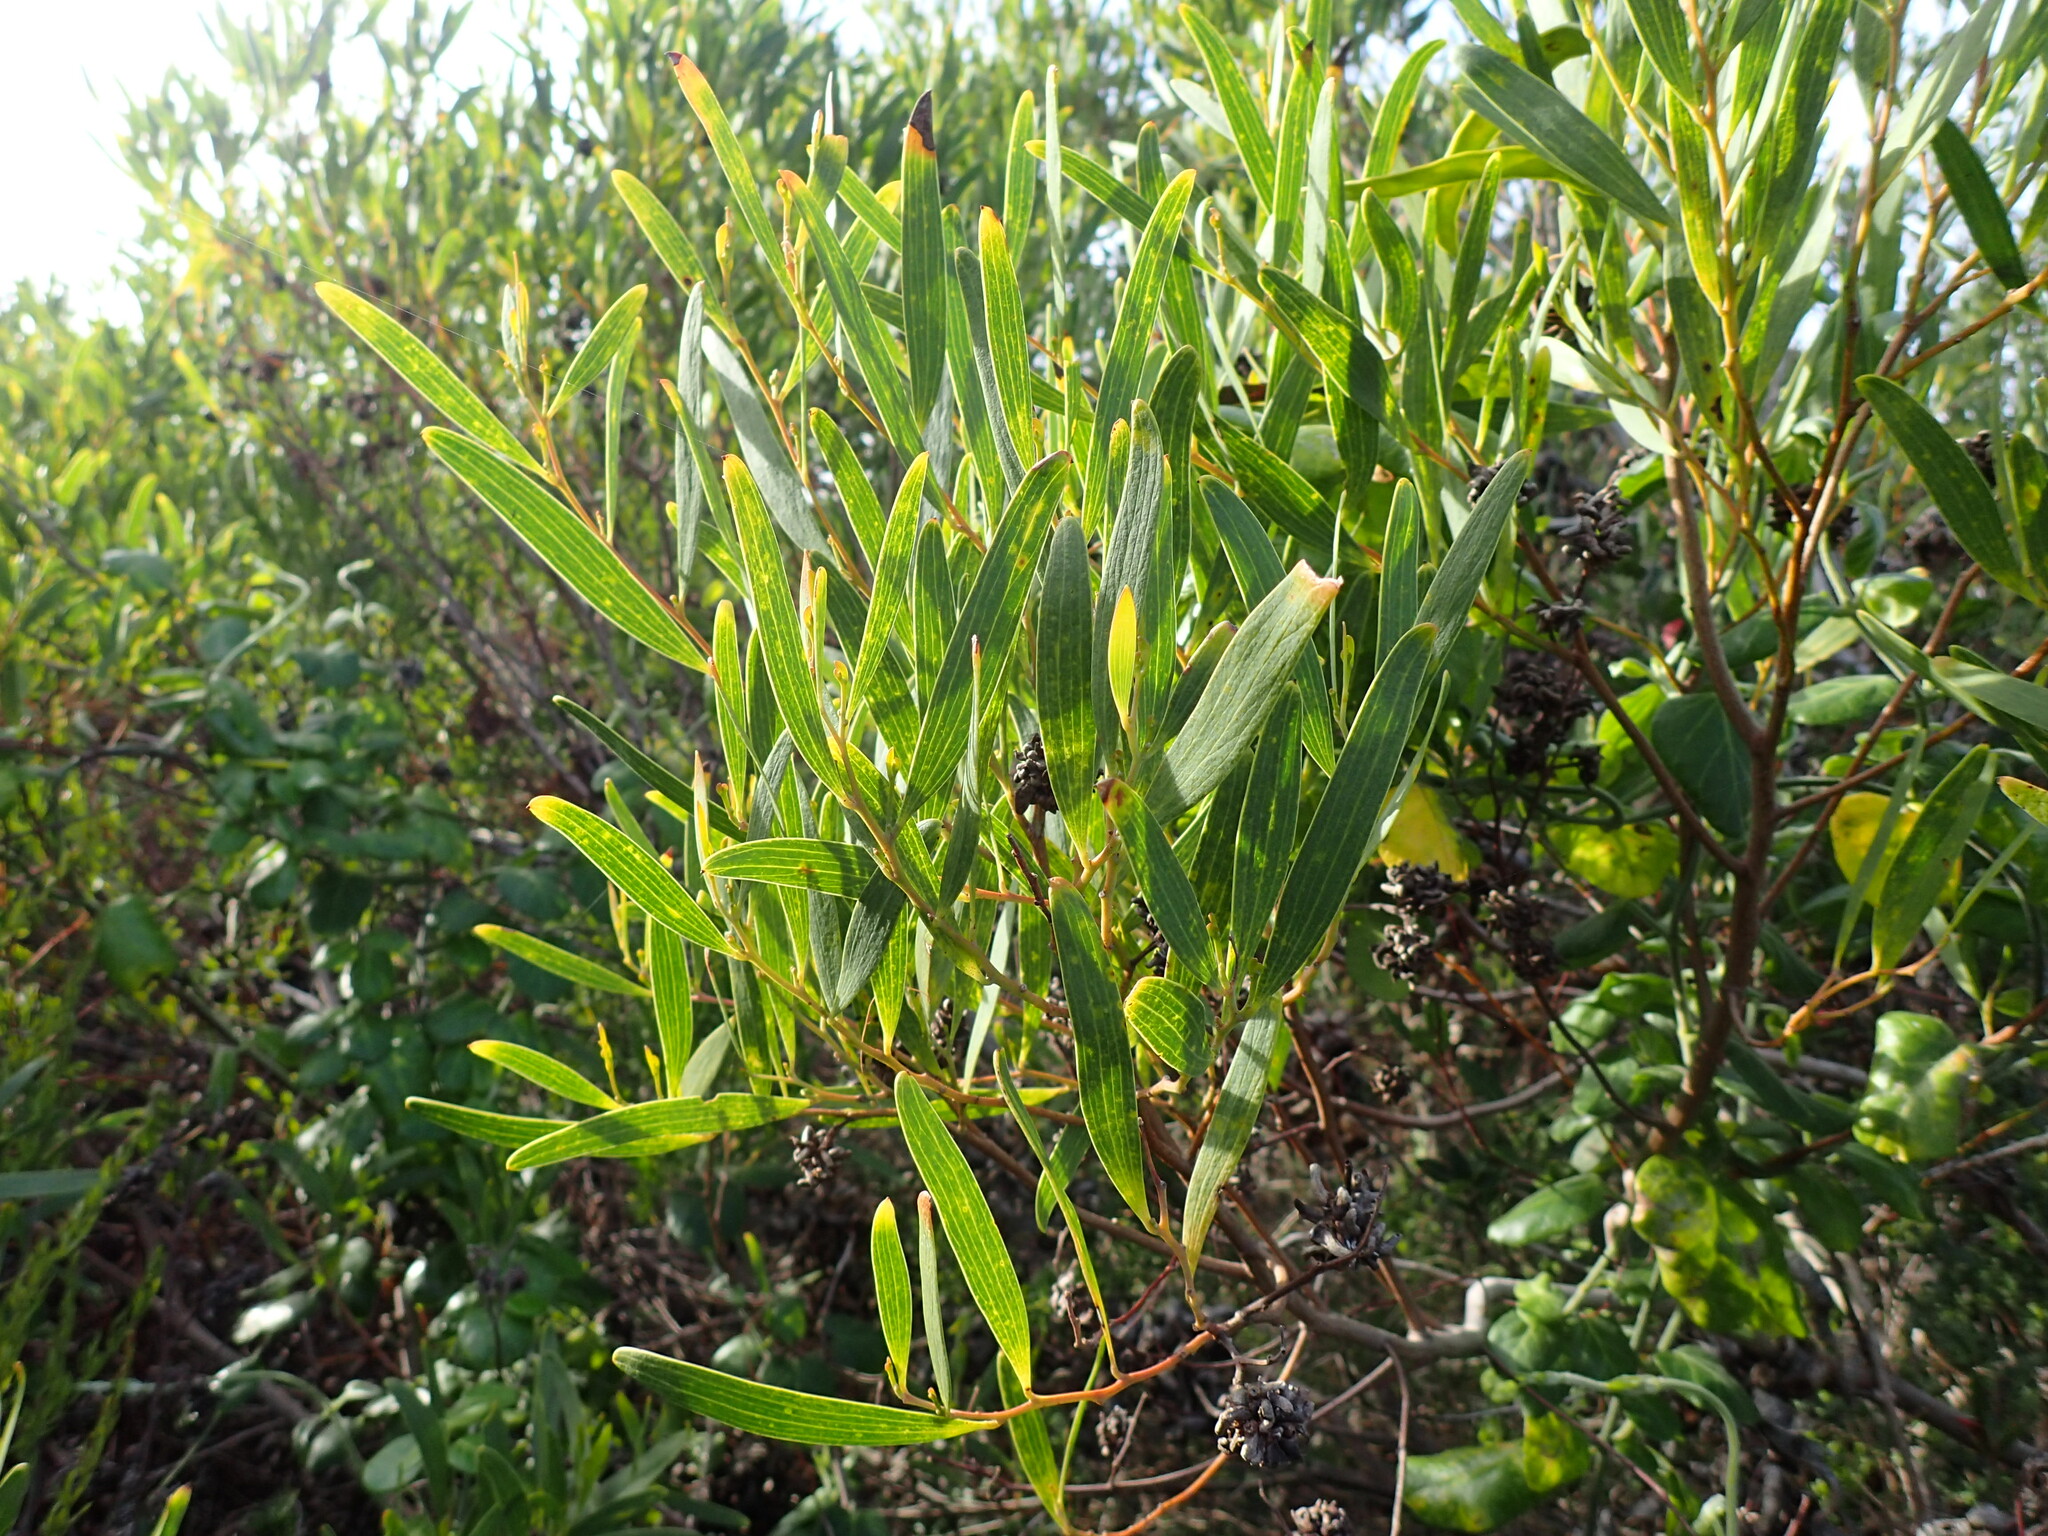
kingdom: Plantae
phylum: Tracheophyta
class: Magnoliopsida
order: Fabales
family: Fabaceae
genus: Acacia
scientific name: Acacia cyclops
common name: Coastal wattle
